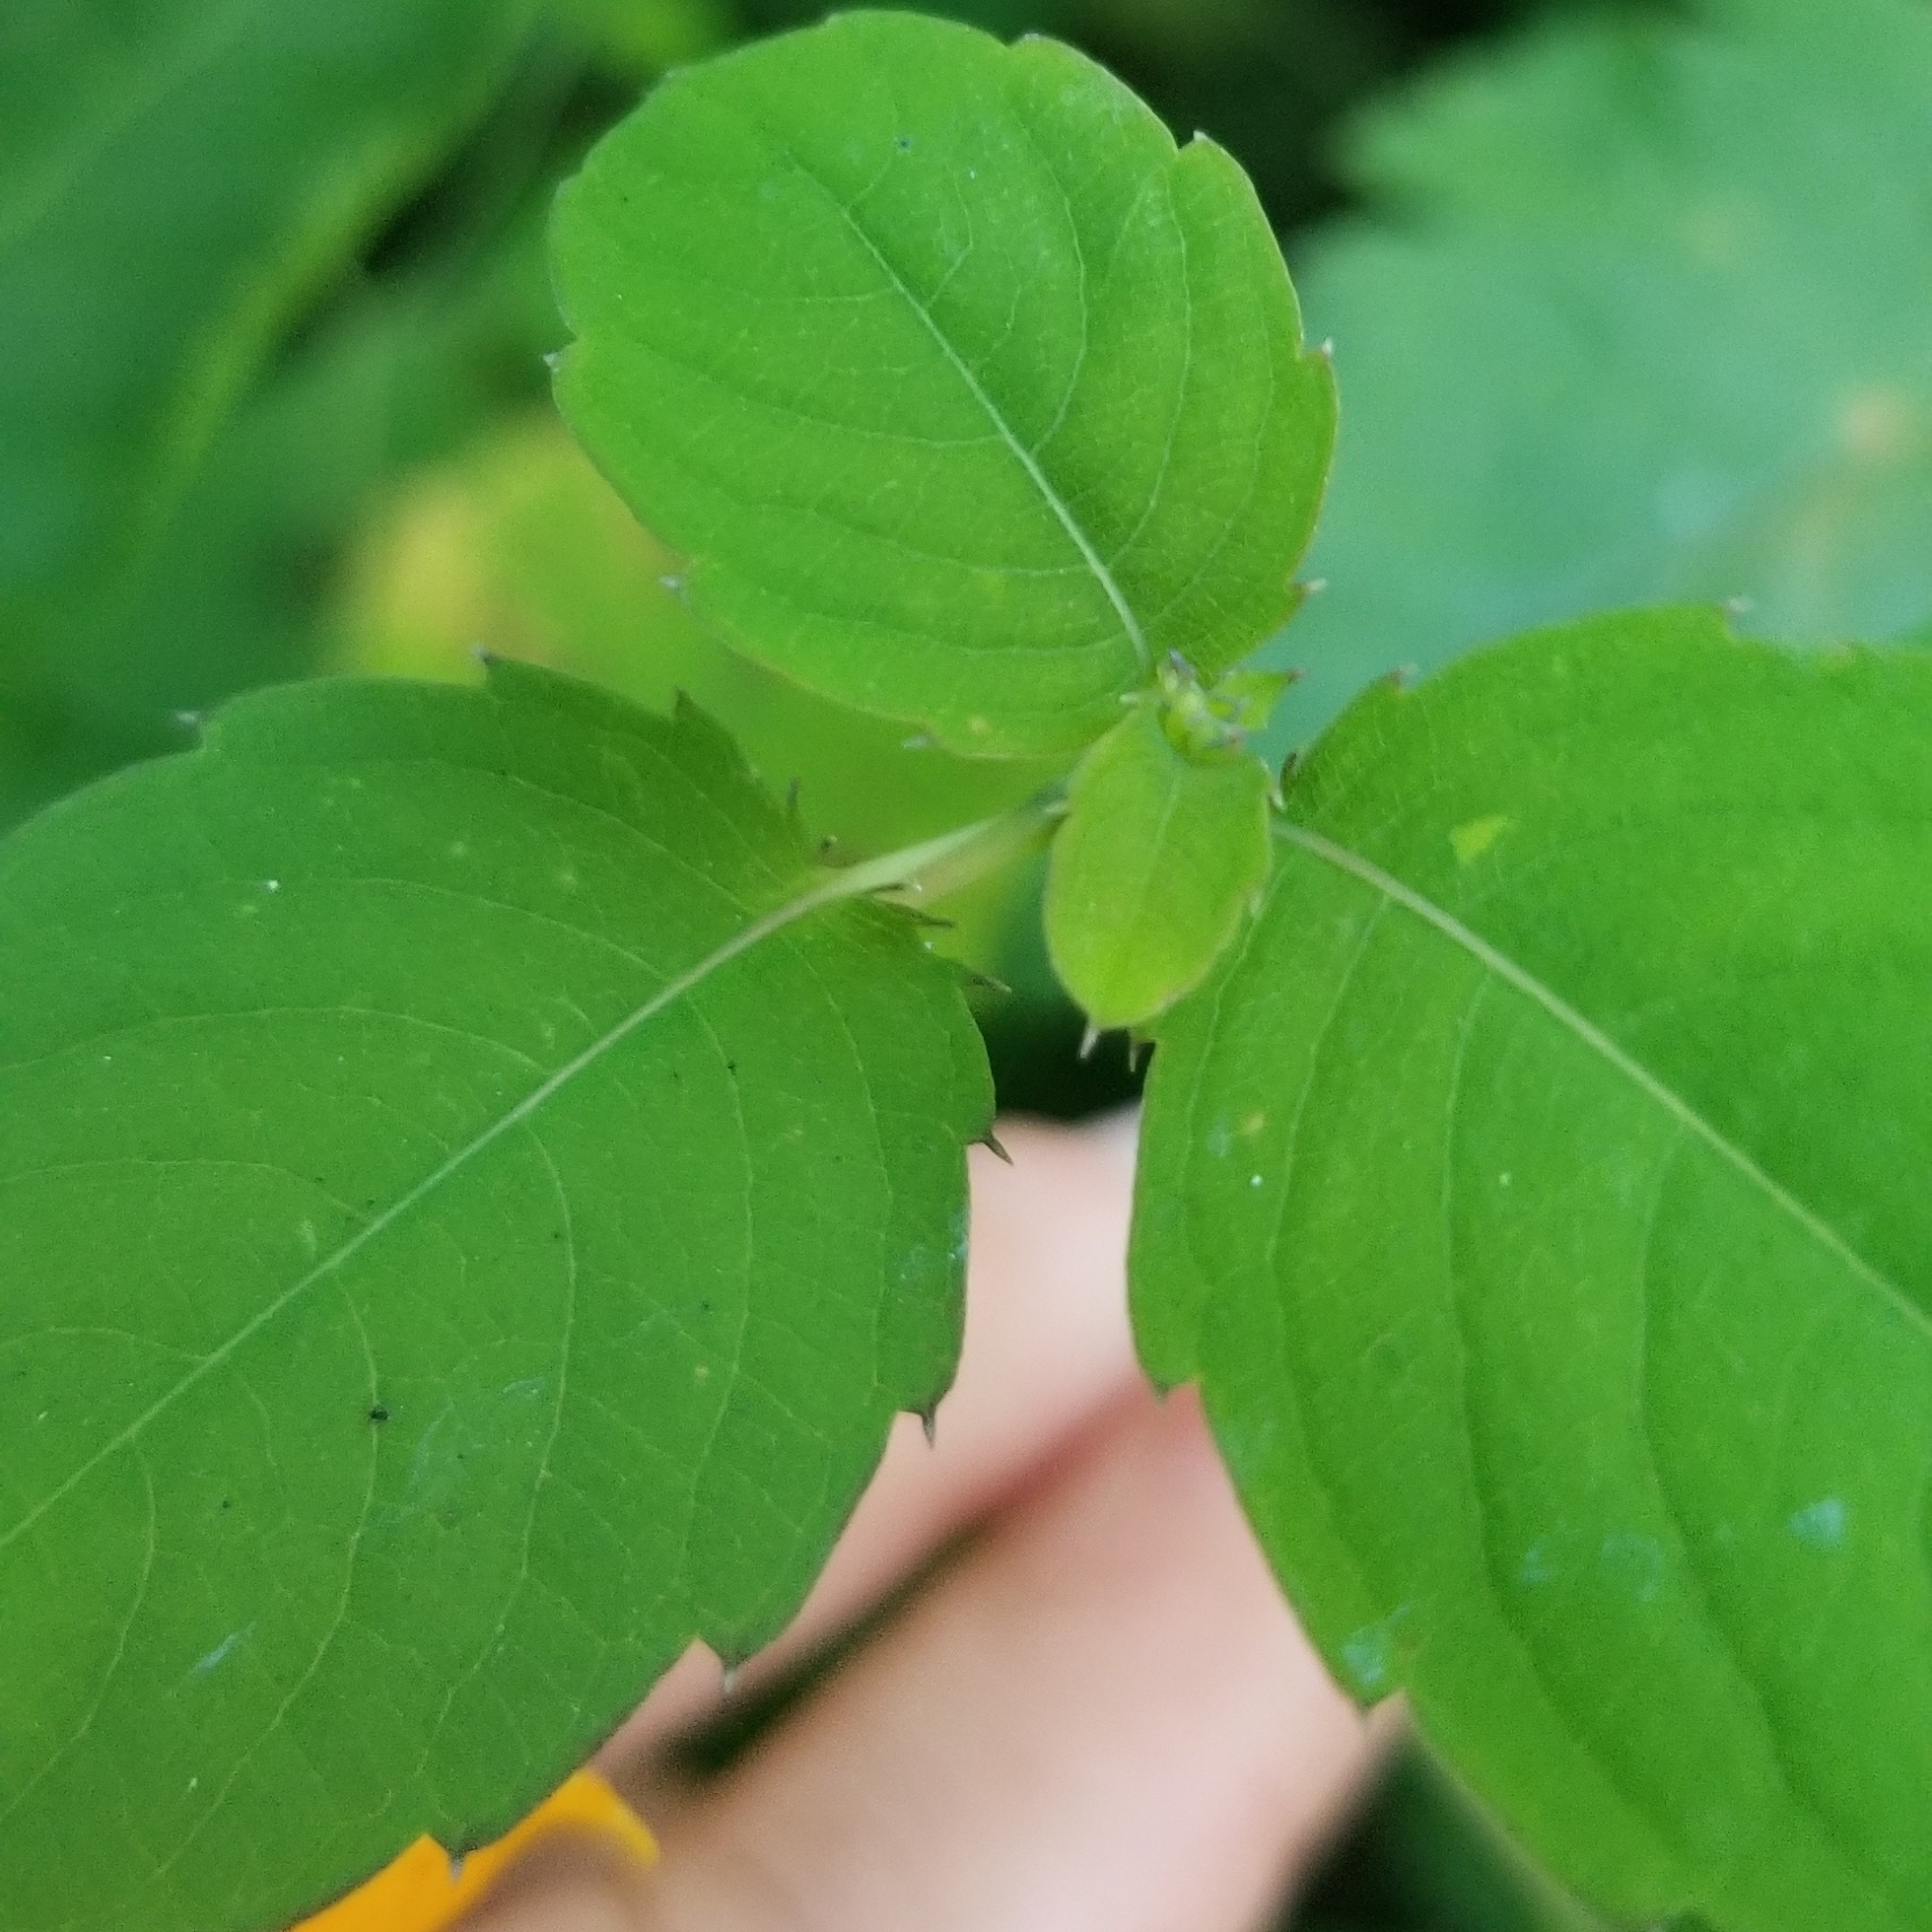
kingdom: Plantae
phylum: Tracheophyta
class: Magnoliopsida
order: Ericales
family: Balsaminaceae
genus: Impatiens
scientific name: Impatiens capensis
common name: Orange balsam
